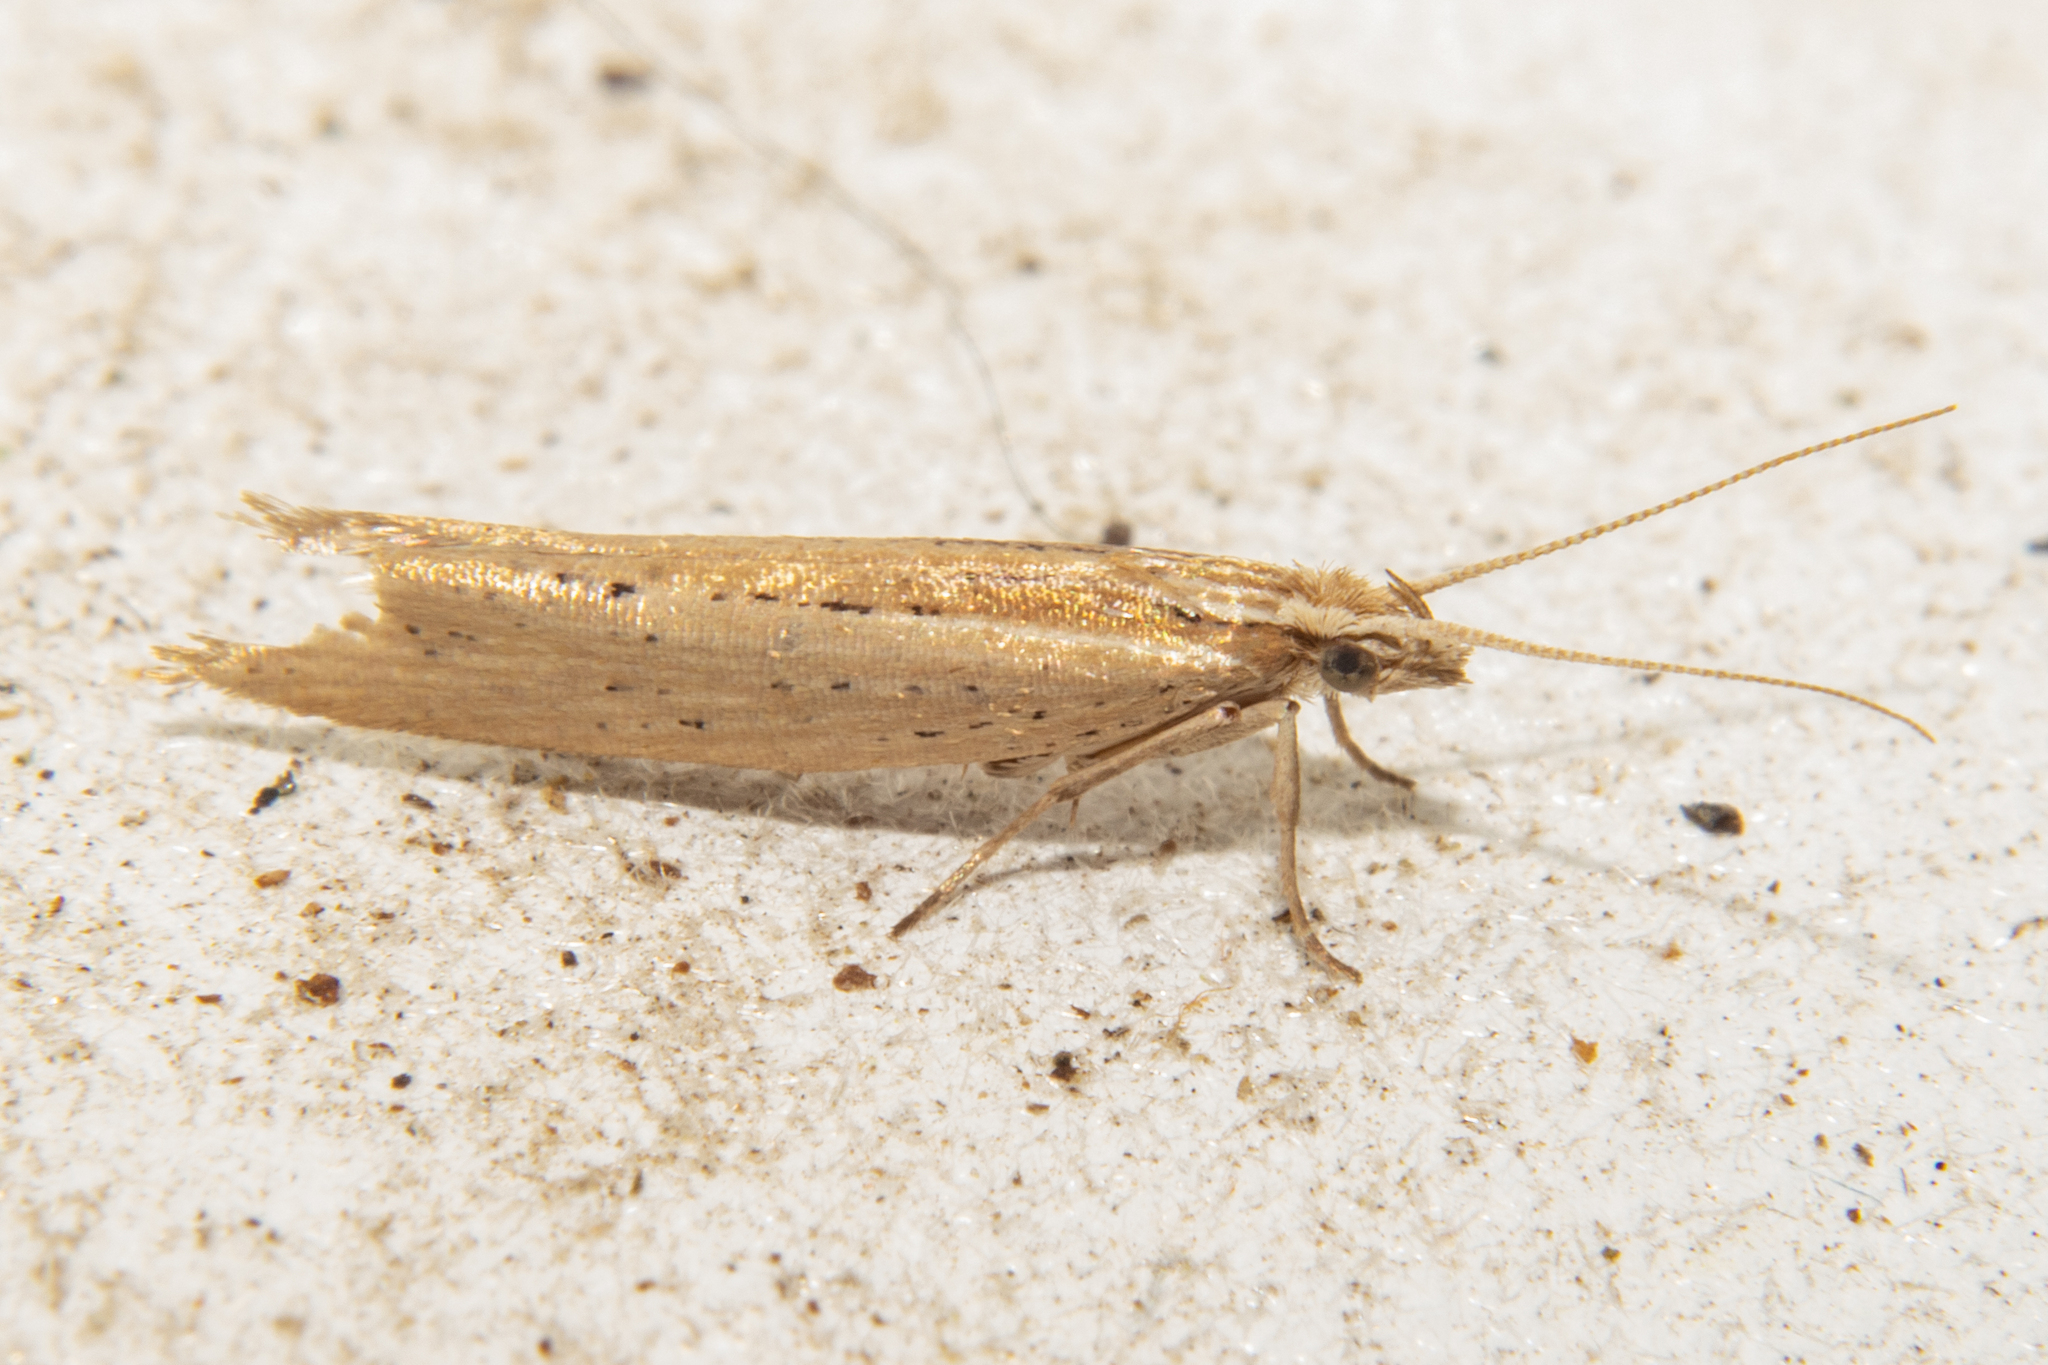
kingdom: Animalia
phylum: Arthropoda
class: Insecta
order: Lepidoptera
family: Plutellidae
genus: Plutella
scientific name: Plutella
